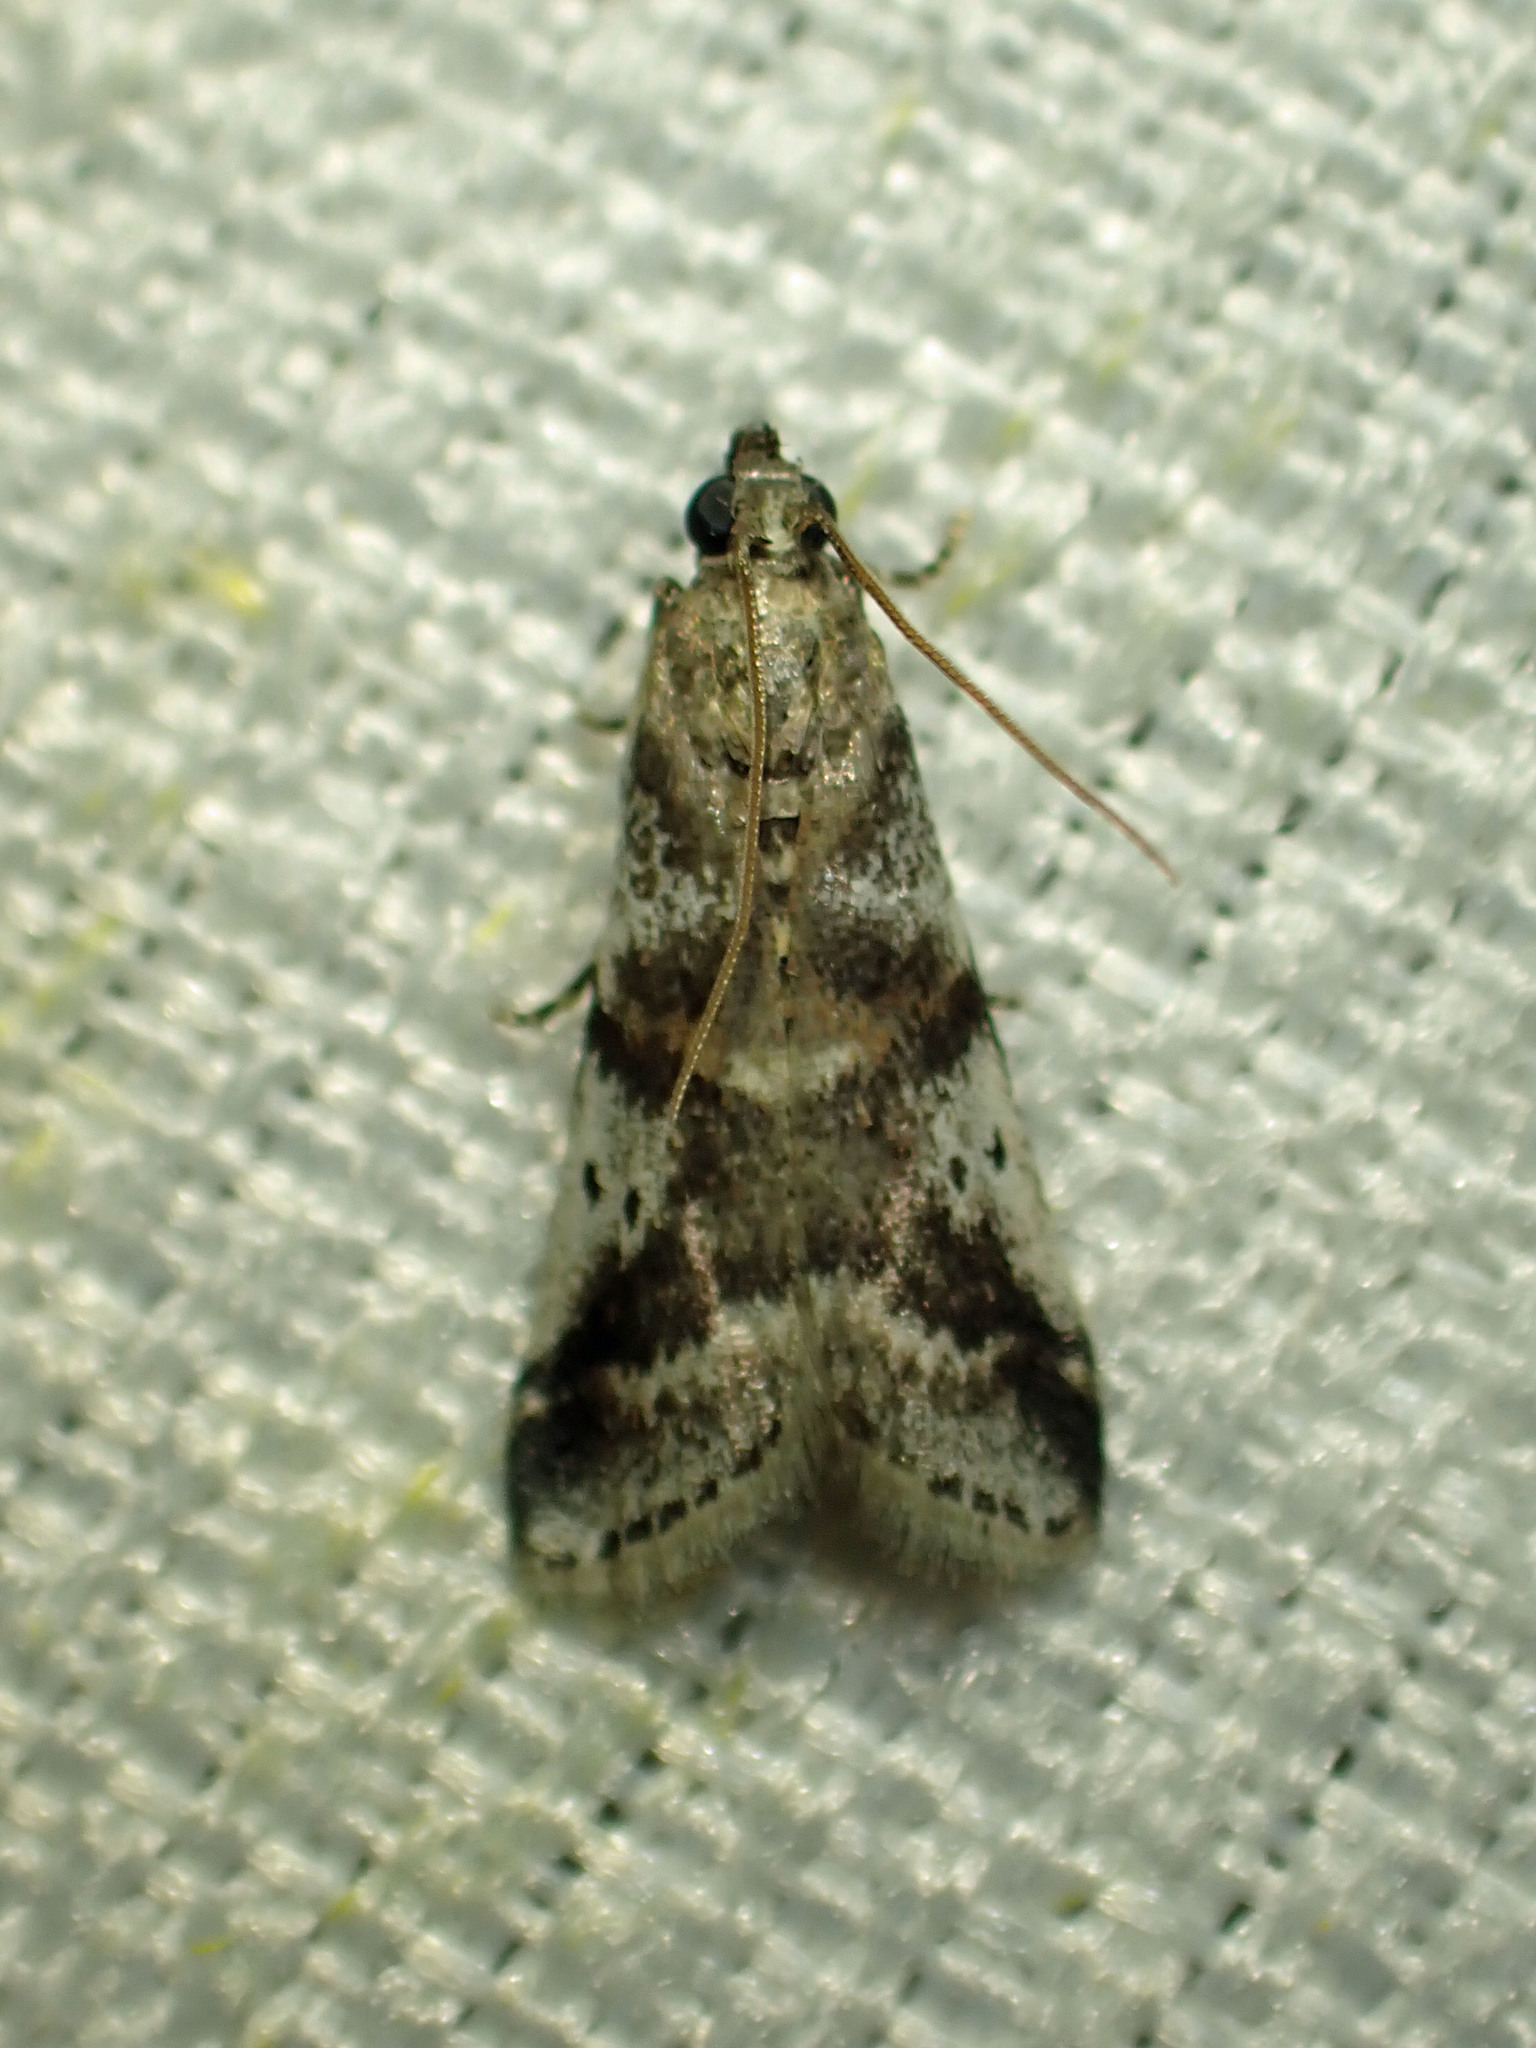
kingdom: Animalia
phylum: Arthropoda
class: Insecta
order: Lepidoptera
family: Pyralidae
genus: Acrobasis
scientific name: Acrobasis indigenella
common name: Leaf crumpler moth
